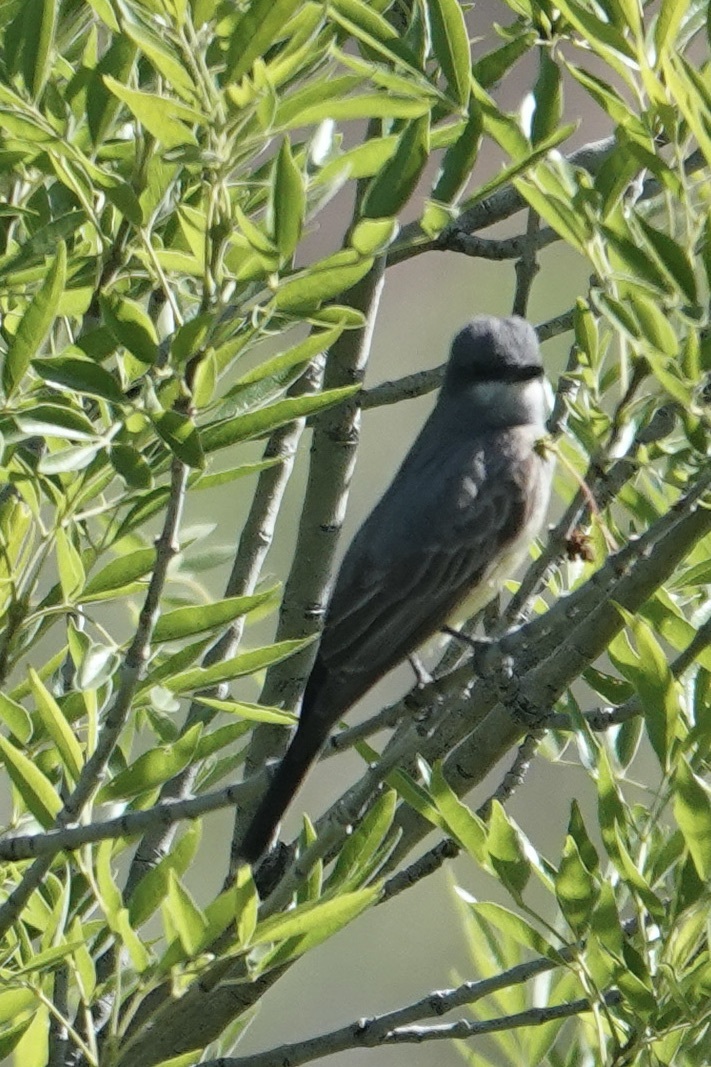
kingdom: Animalia
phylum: Chordata
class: Aves
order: Passeriformes
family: Tyrannidae
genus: Tyrannus
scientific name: Tyrannus vociferans
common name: Cassin's kingbird
